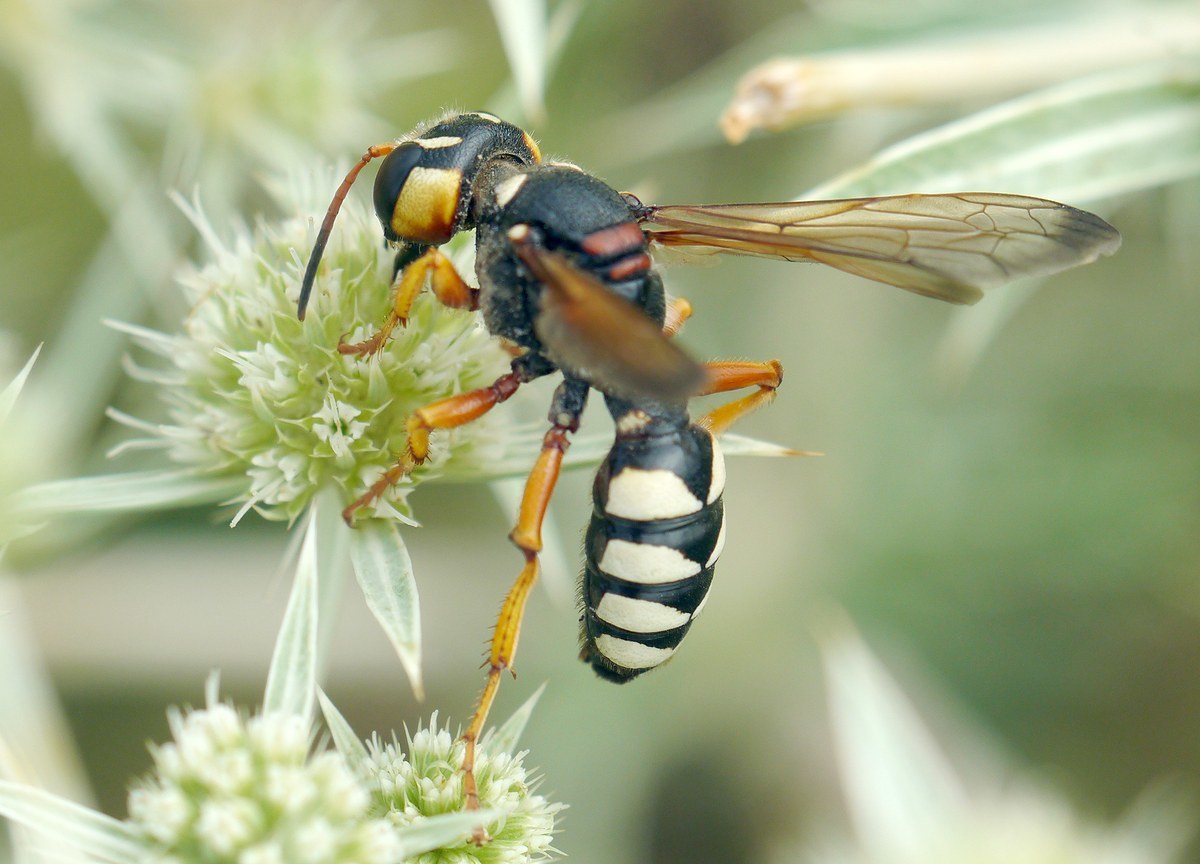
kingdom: Animalia
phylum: Arthropoda
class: Insecta
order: Hymenoptera
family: Crabronidae
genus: Cerceris
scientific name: Cerceris tuberculata
